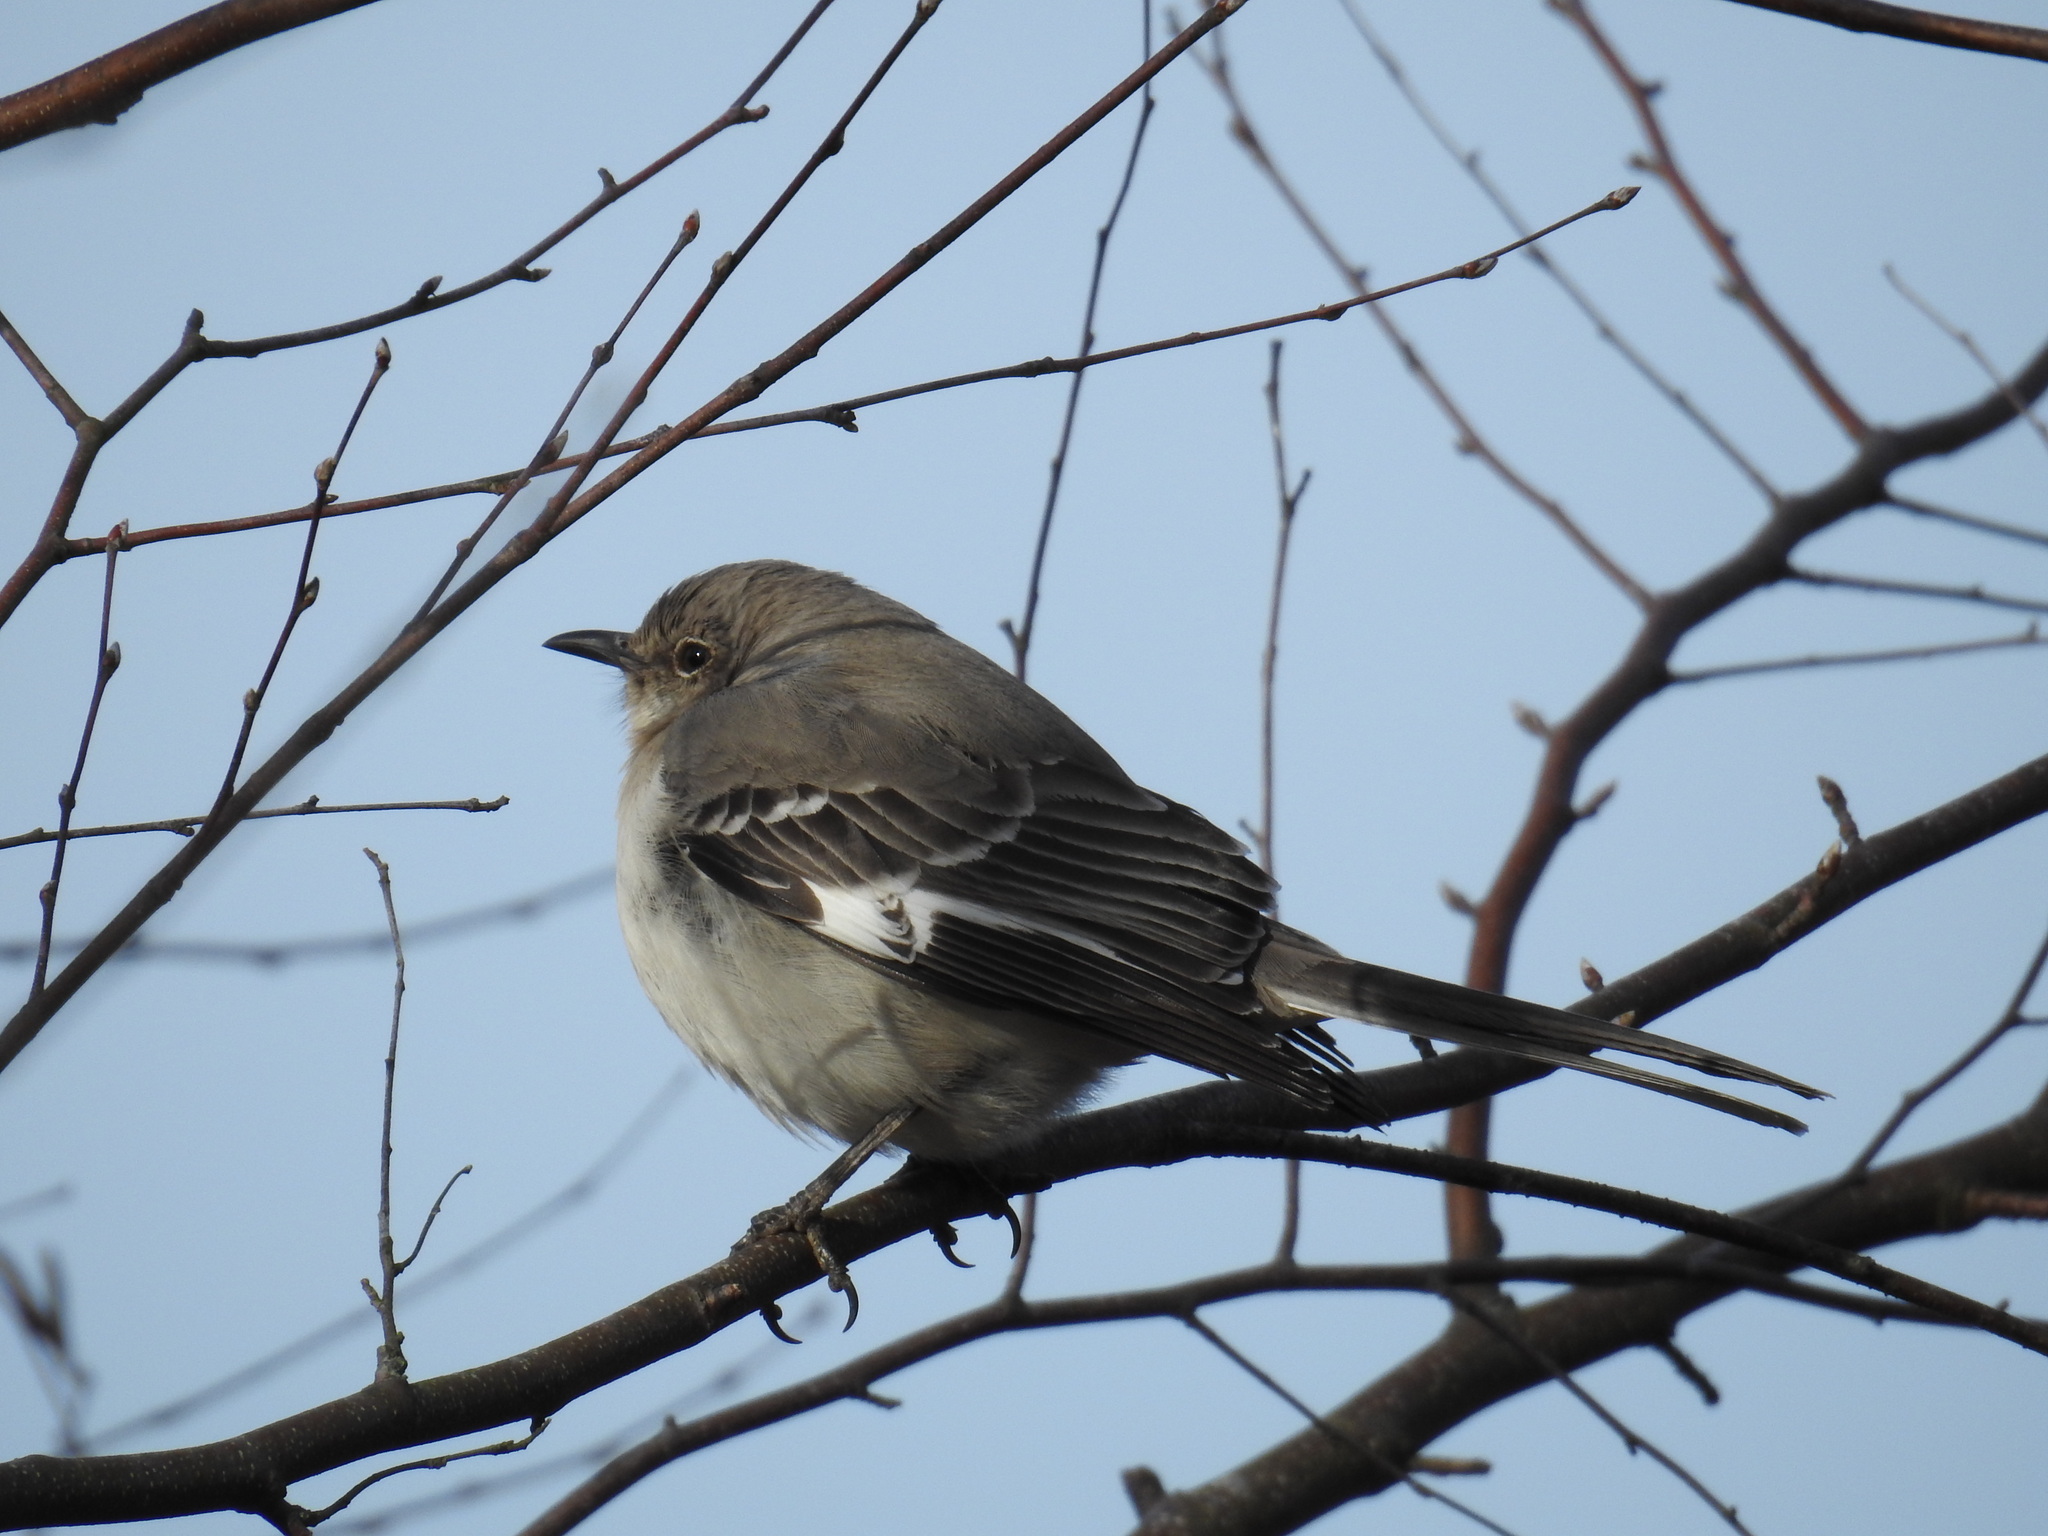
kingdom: Animalia
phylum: Chordata
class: Aves
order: Passeriformes
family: Mimidae
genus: Mimus
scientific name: Mimus polyglottos
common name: Northern mockingbird
